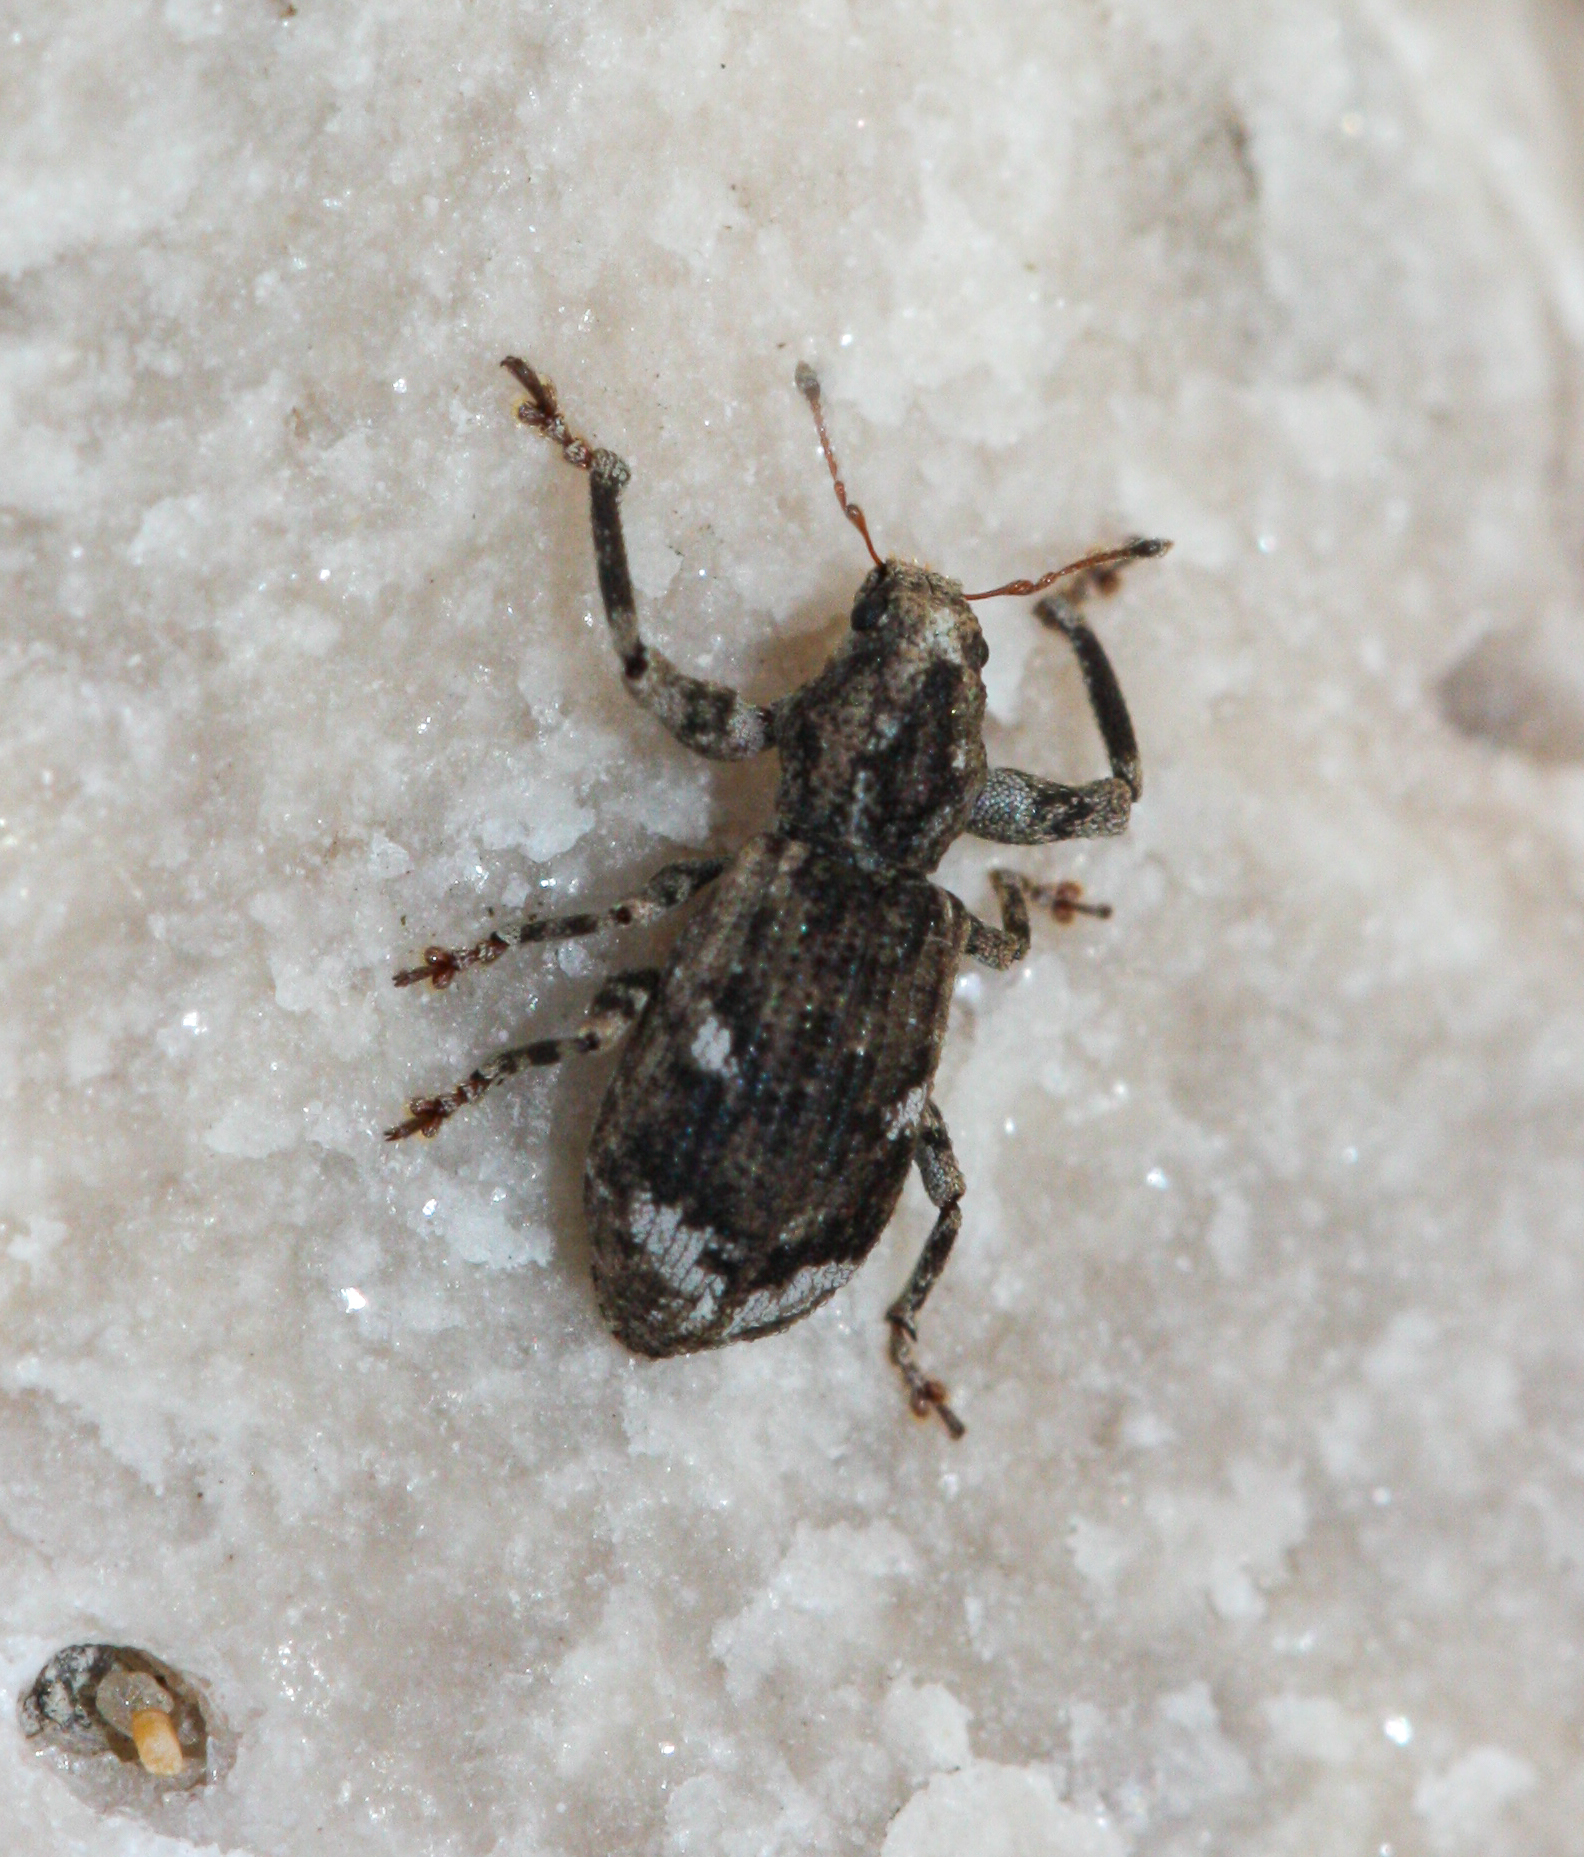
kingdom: Animalia
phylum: Arthropoda
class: Insecta
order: Coleoptera
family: Curculionidae
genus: Pandeleteius
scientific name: Pandeleteius hilaris
